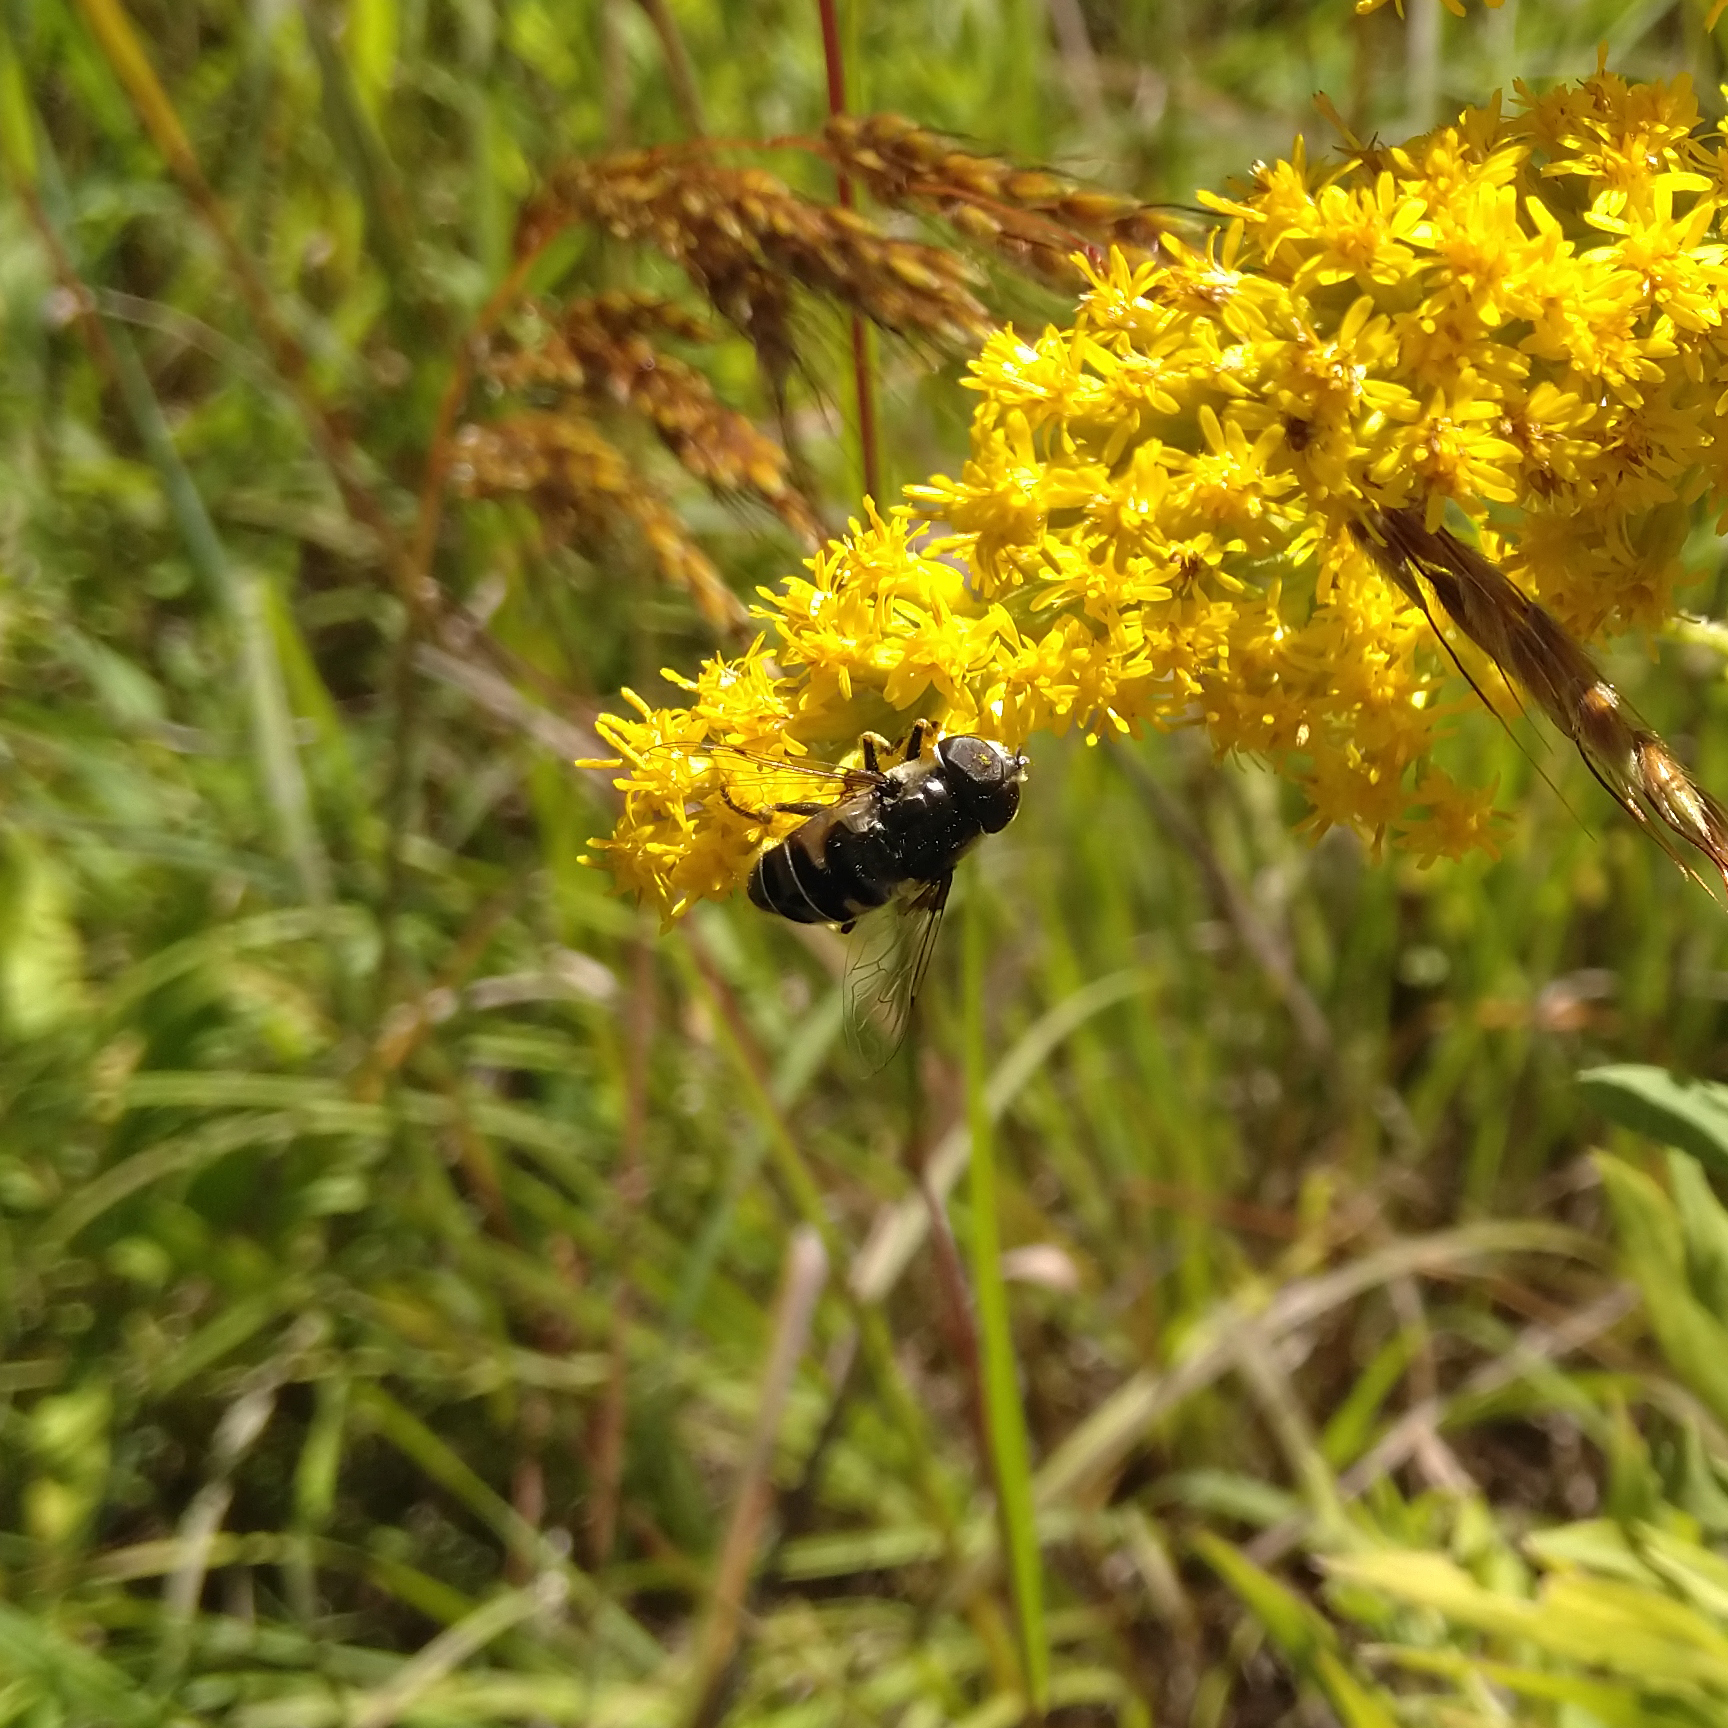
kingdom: Animalia
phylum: Arthropoda
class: Insecta
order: Diptera
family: Syrphidae
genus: Eristalis
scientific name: Eristalis dimidiata
